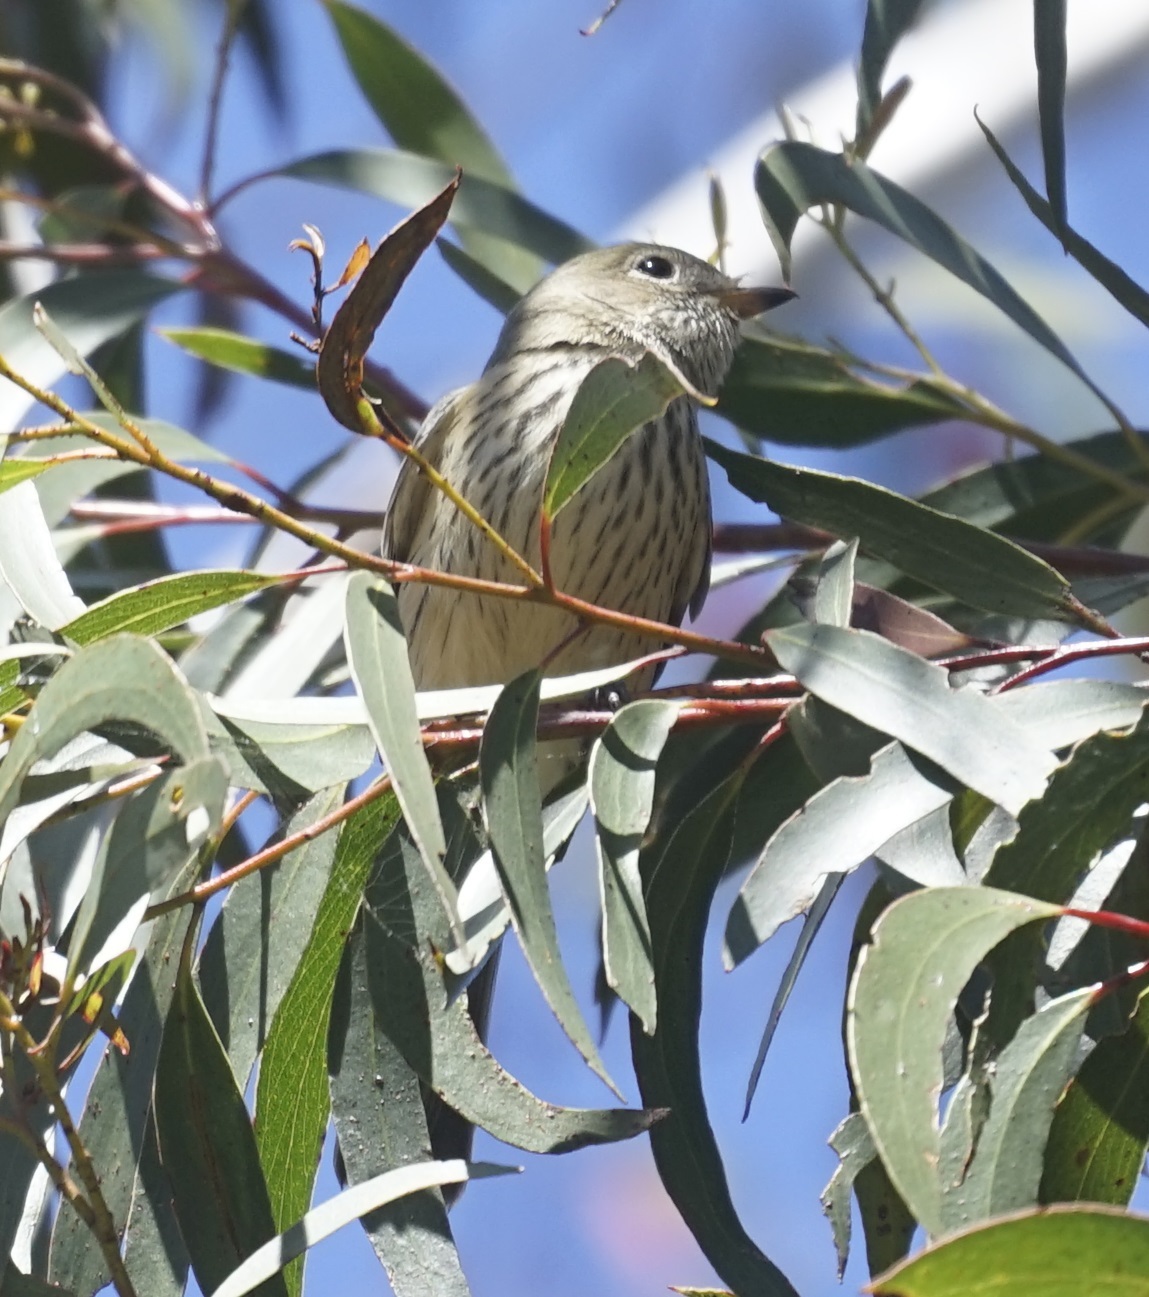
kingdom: Animalia
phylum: Chordata
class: Aves
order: Passeriformes
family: Pachycephalidae
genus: Pachycephala
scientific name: Pachycephala rufiventris
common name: Rufous whistler
